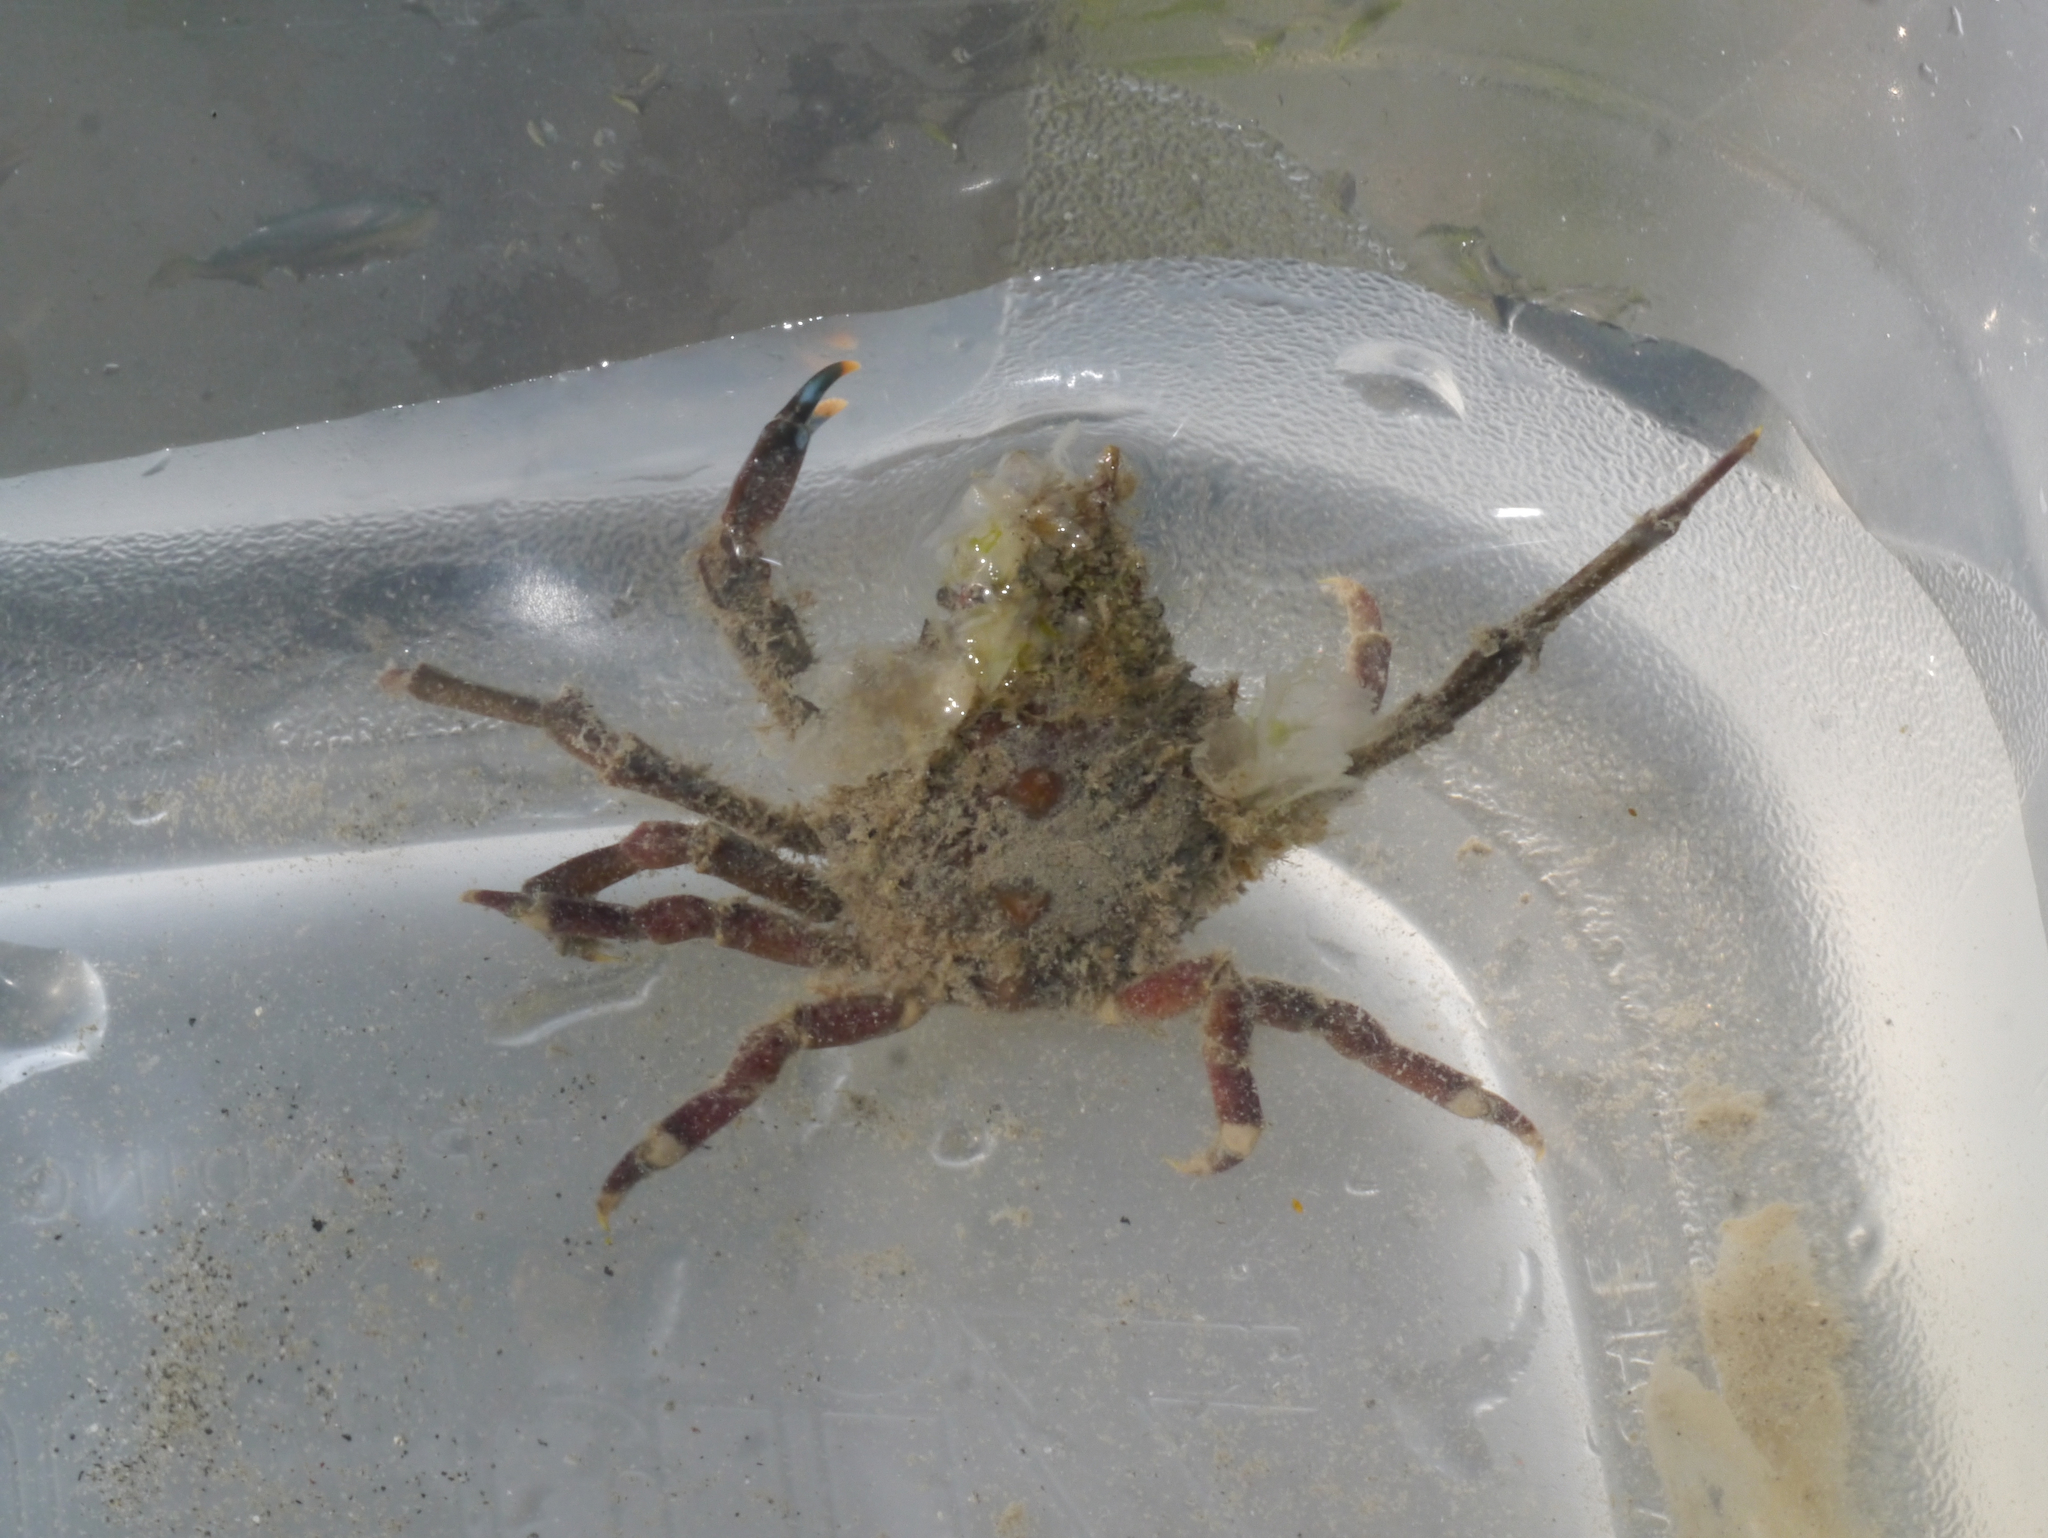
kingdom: Animalia
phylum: Arthropoda
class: Malacostraca
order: Decapoda
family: Epialtidae
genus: Pugettia
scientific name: Pugettia gracilis
